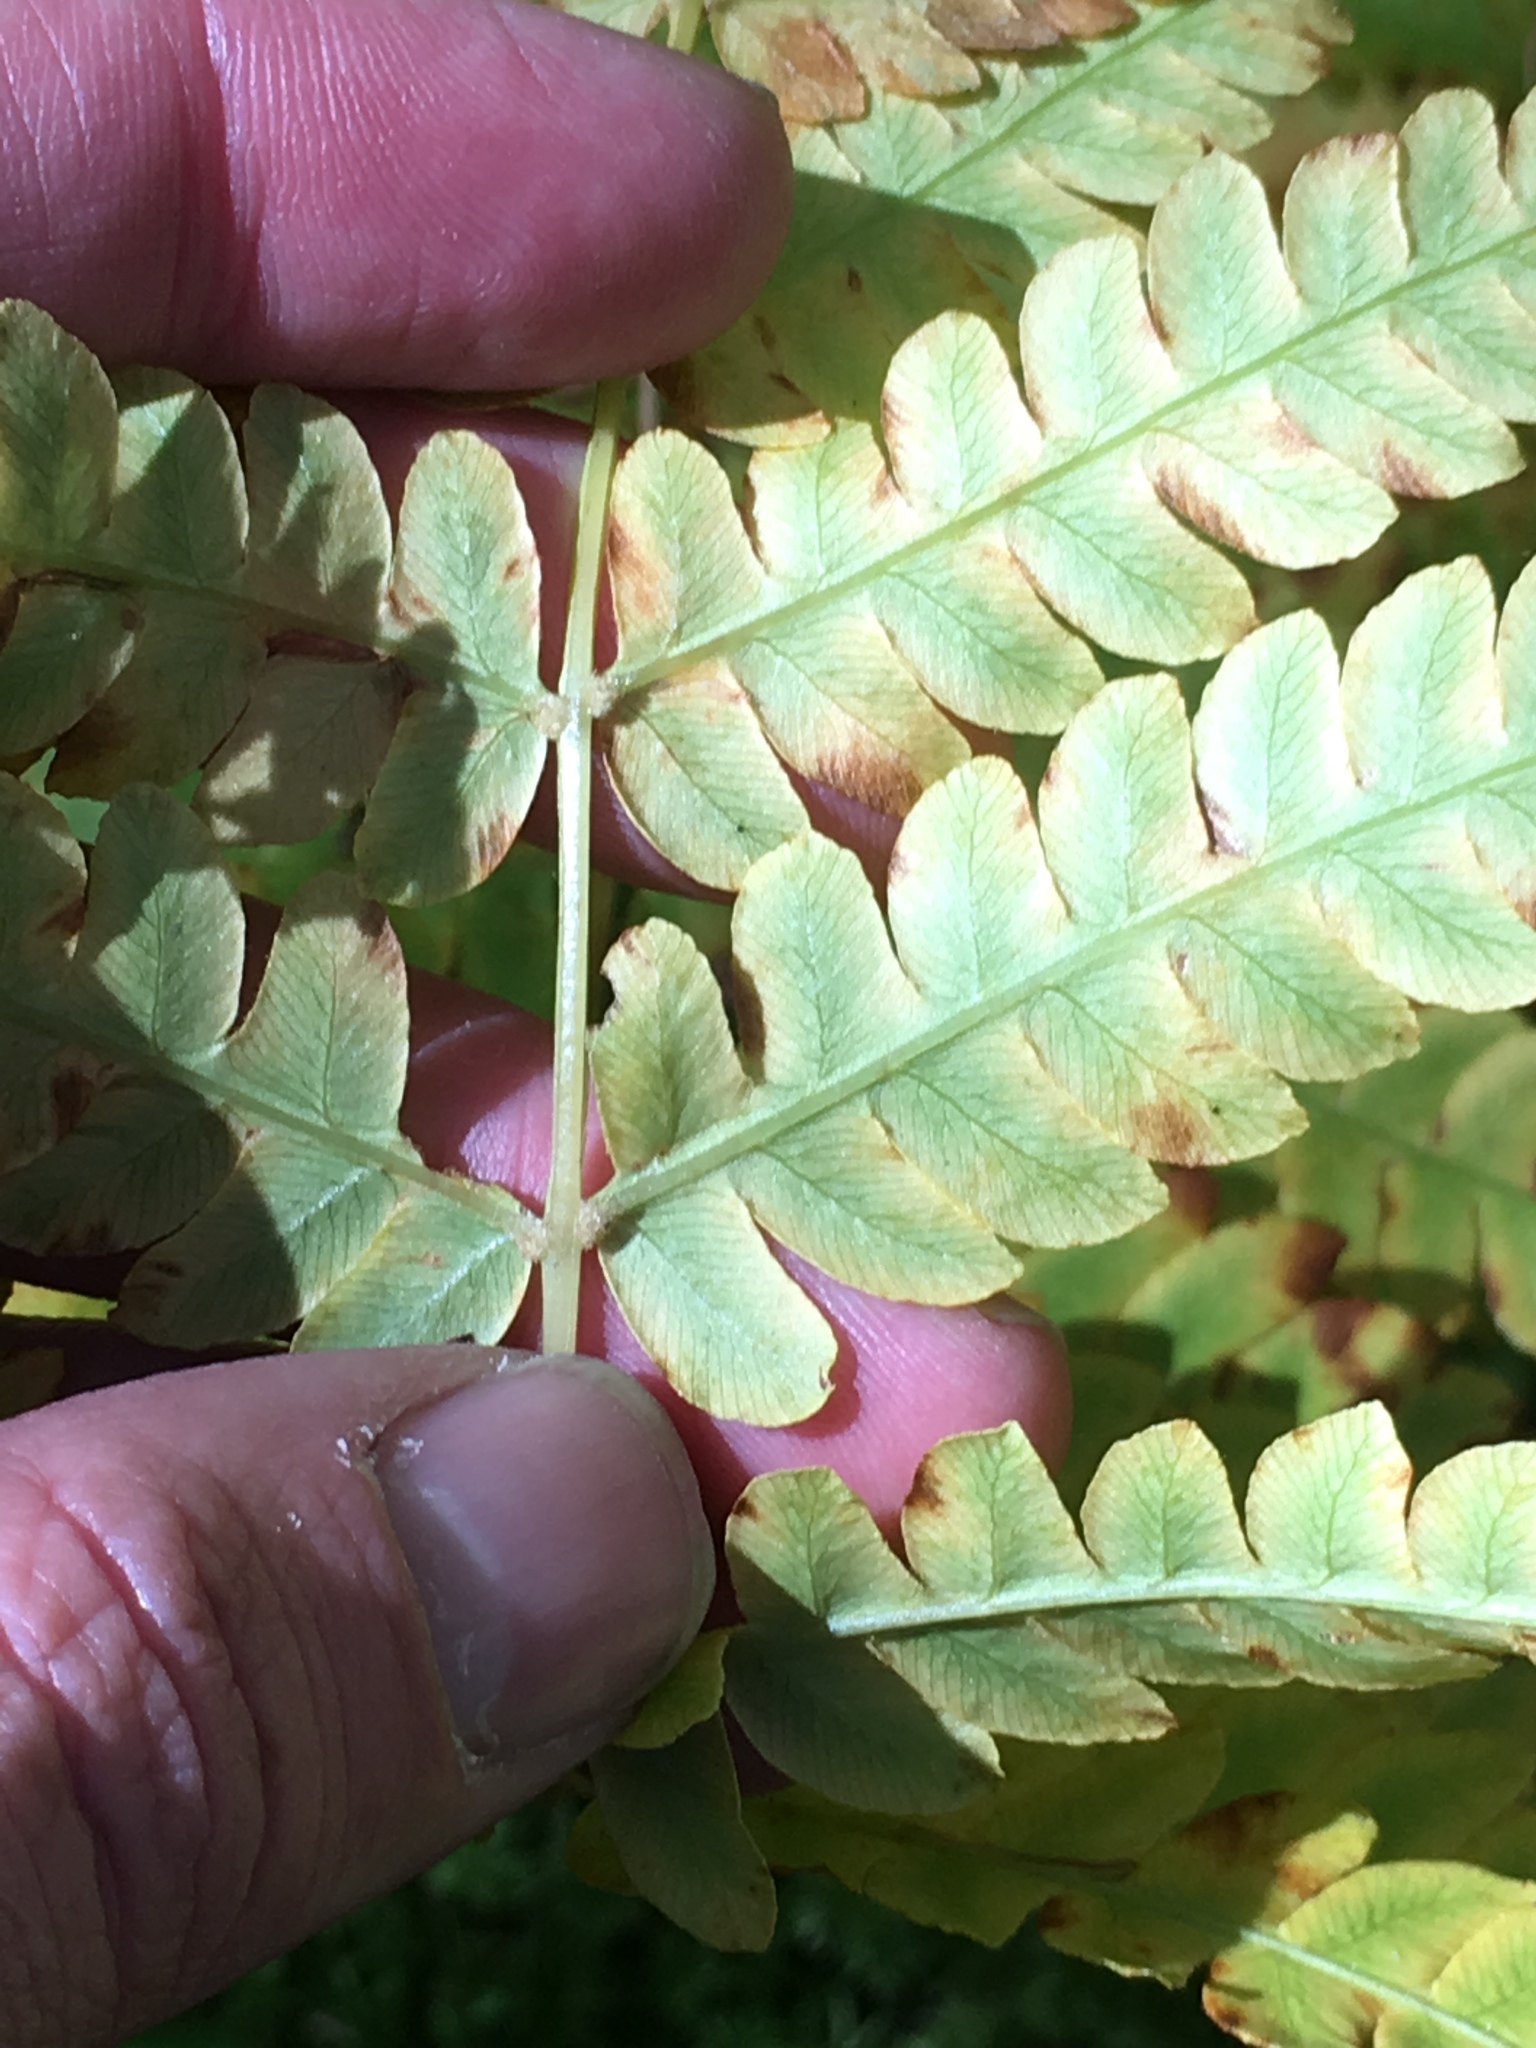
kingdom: Plantae
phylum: Tracheophyta
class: Polypodiopsida
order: Osmundales
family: Osmundaceae
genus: Osmundastrum
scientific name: Osmundastrum cinnamomeum
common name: Cinnamon fern
